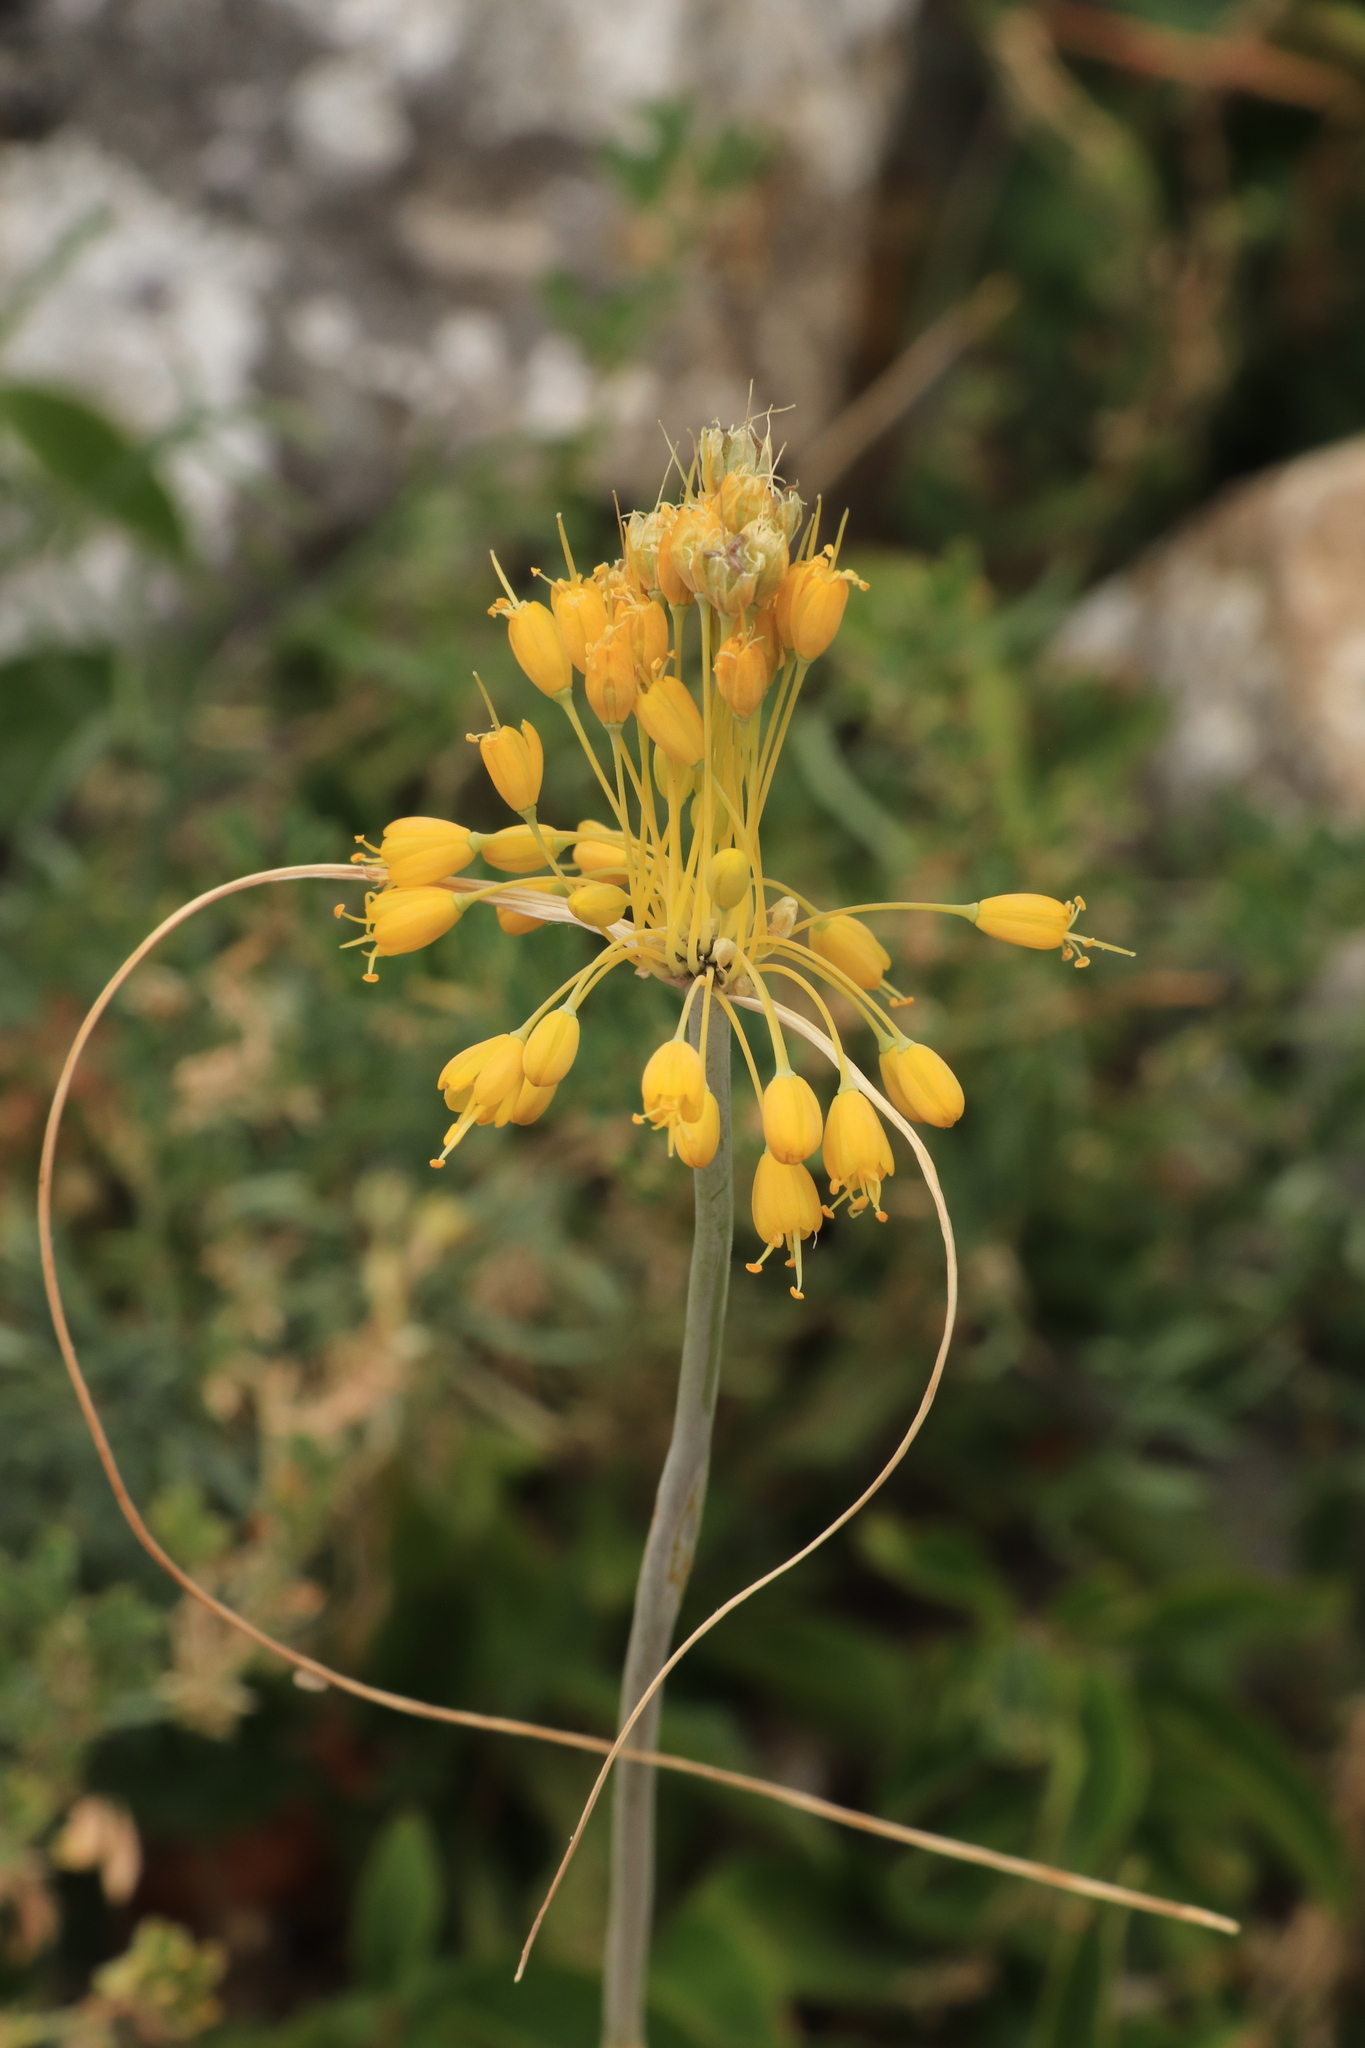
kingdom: Plantae
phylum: Tracheophyta
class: Liliopsida
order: Asparagales
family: Amaryllidaceae
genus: Allium
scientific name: Allium flavum
